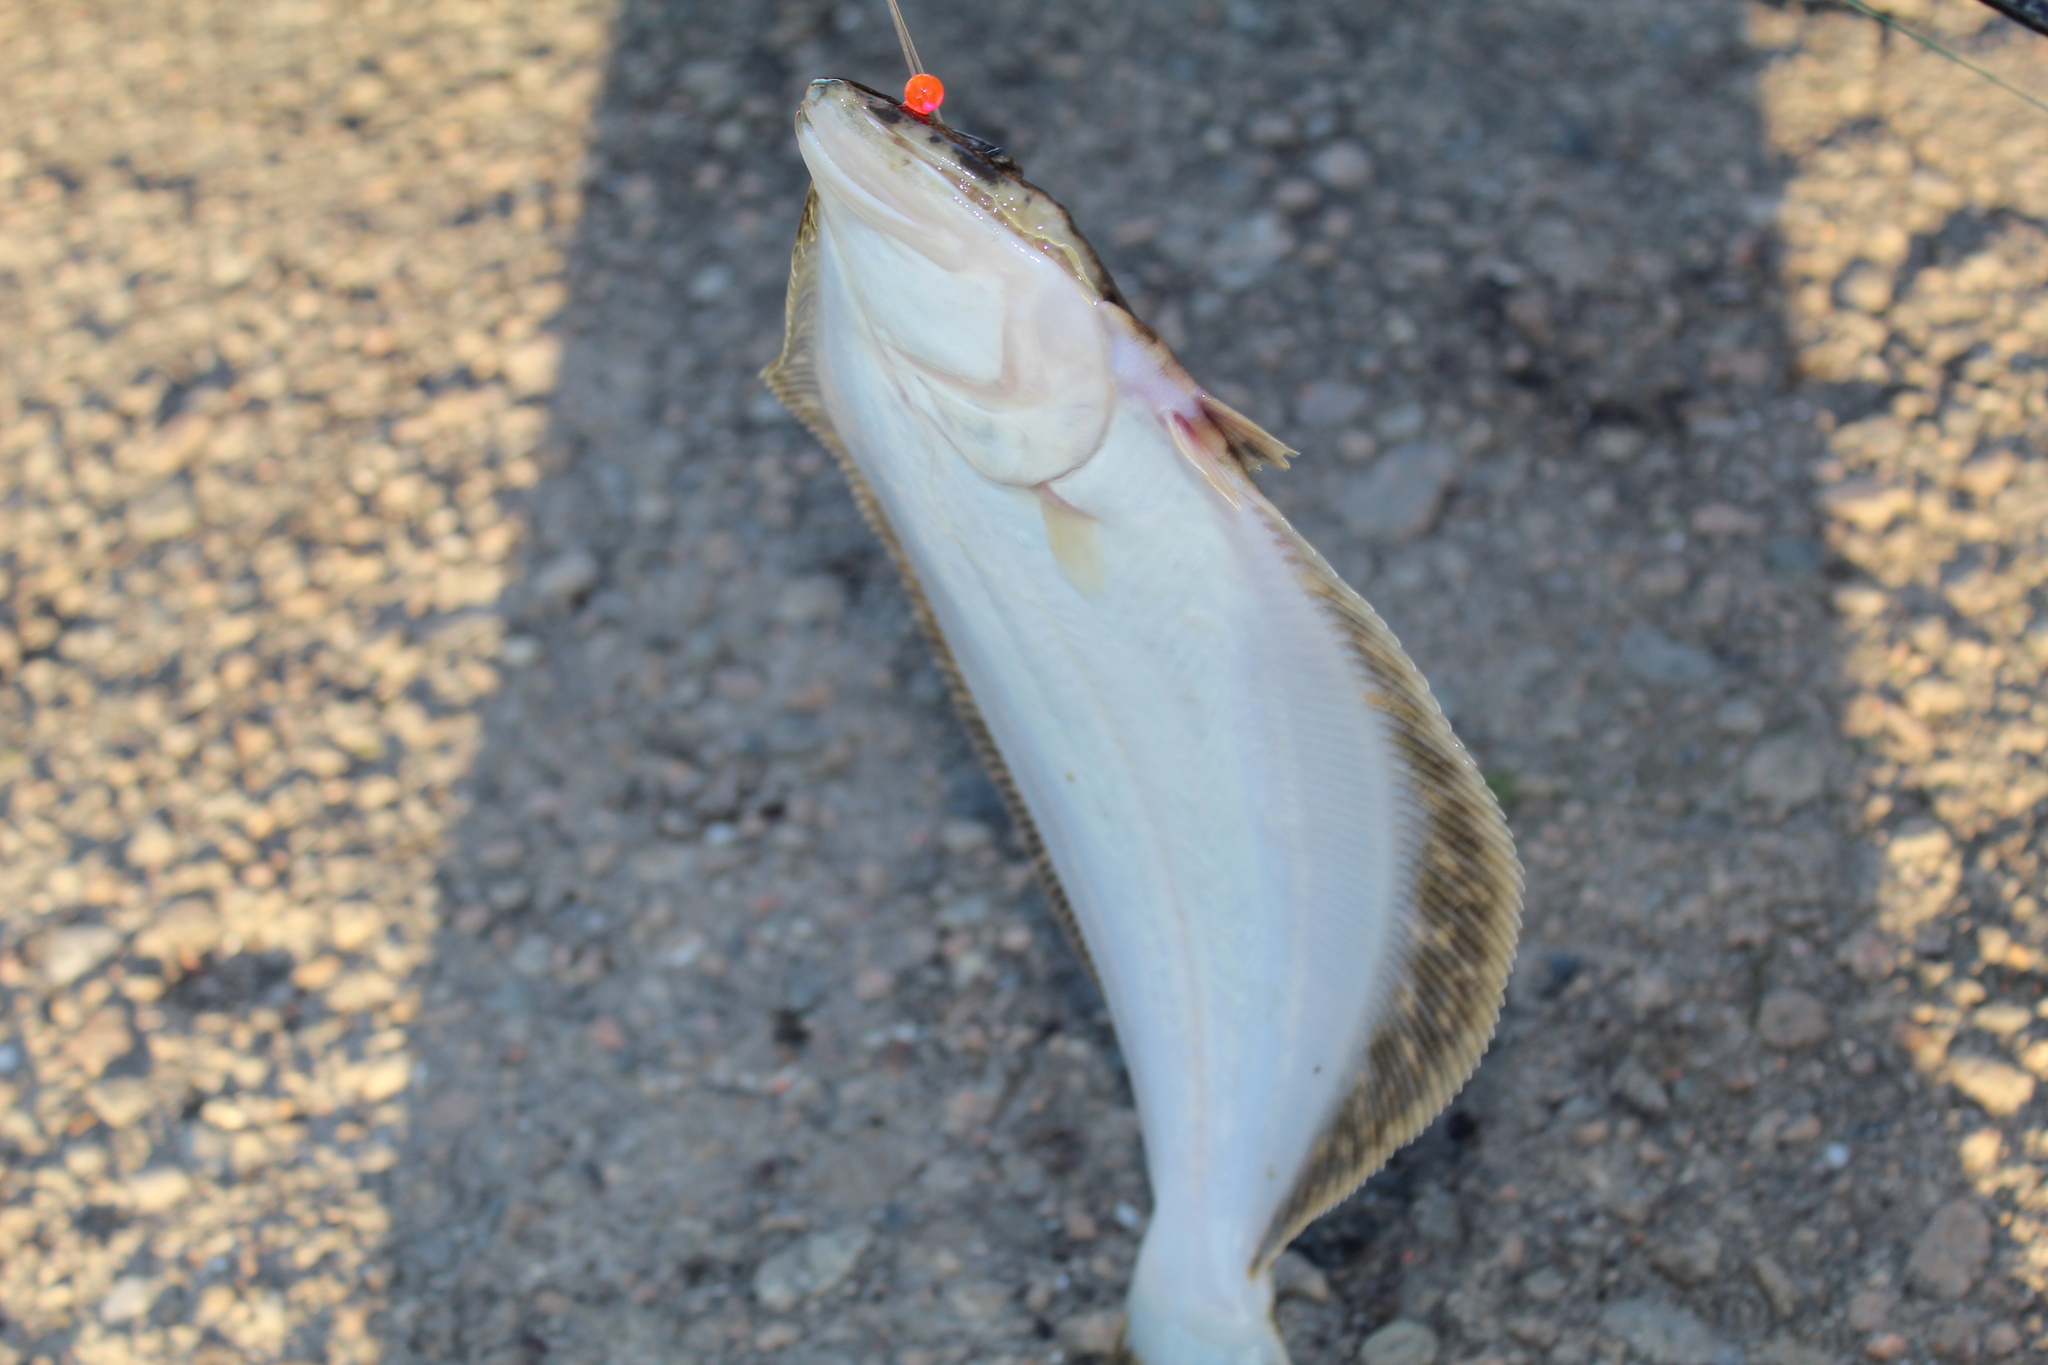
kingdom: Animalia
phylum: Chordata
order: Pleuronectiformes
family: Paralichthyidae
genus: Paralichthys
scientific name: Paralichthys dentatus
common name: Summer flounder
